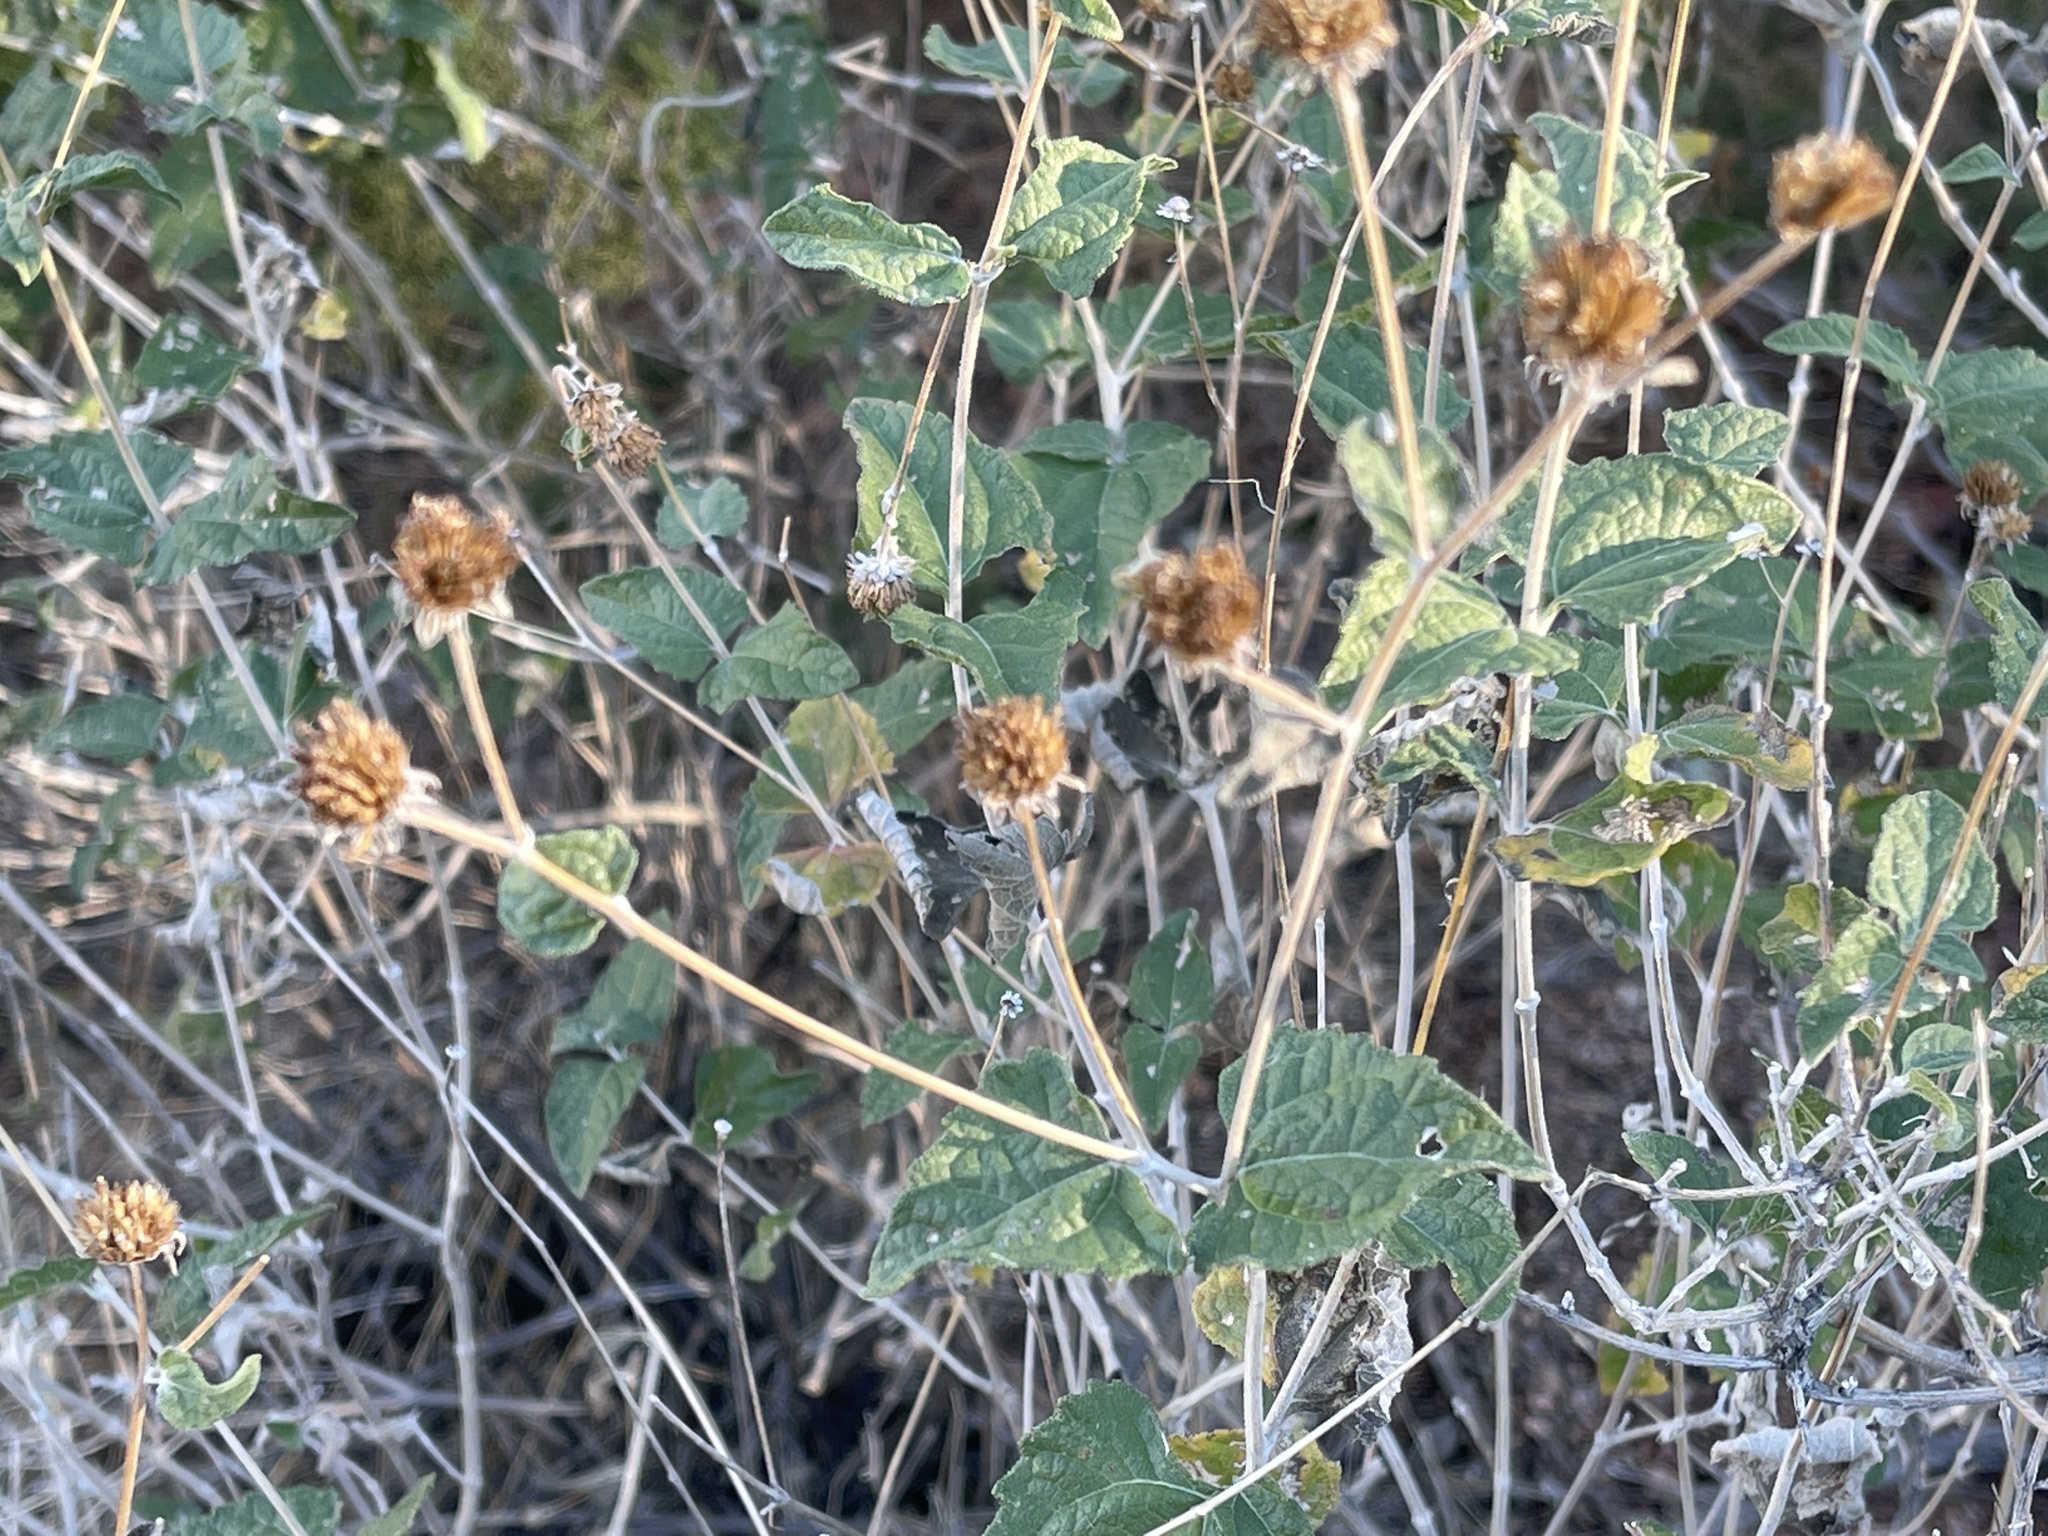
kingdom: Plantae
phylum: Tracheophyta
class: Magnoliopsida
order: Asterales
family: Asteraceae
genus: Bahiopsis
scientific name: Bahiopsis parishii
